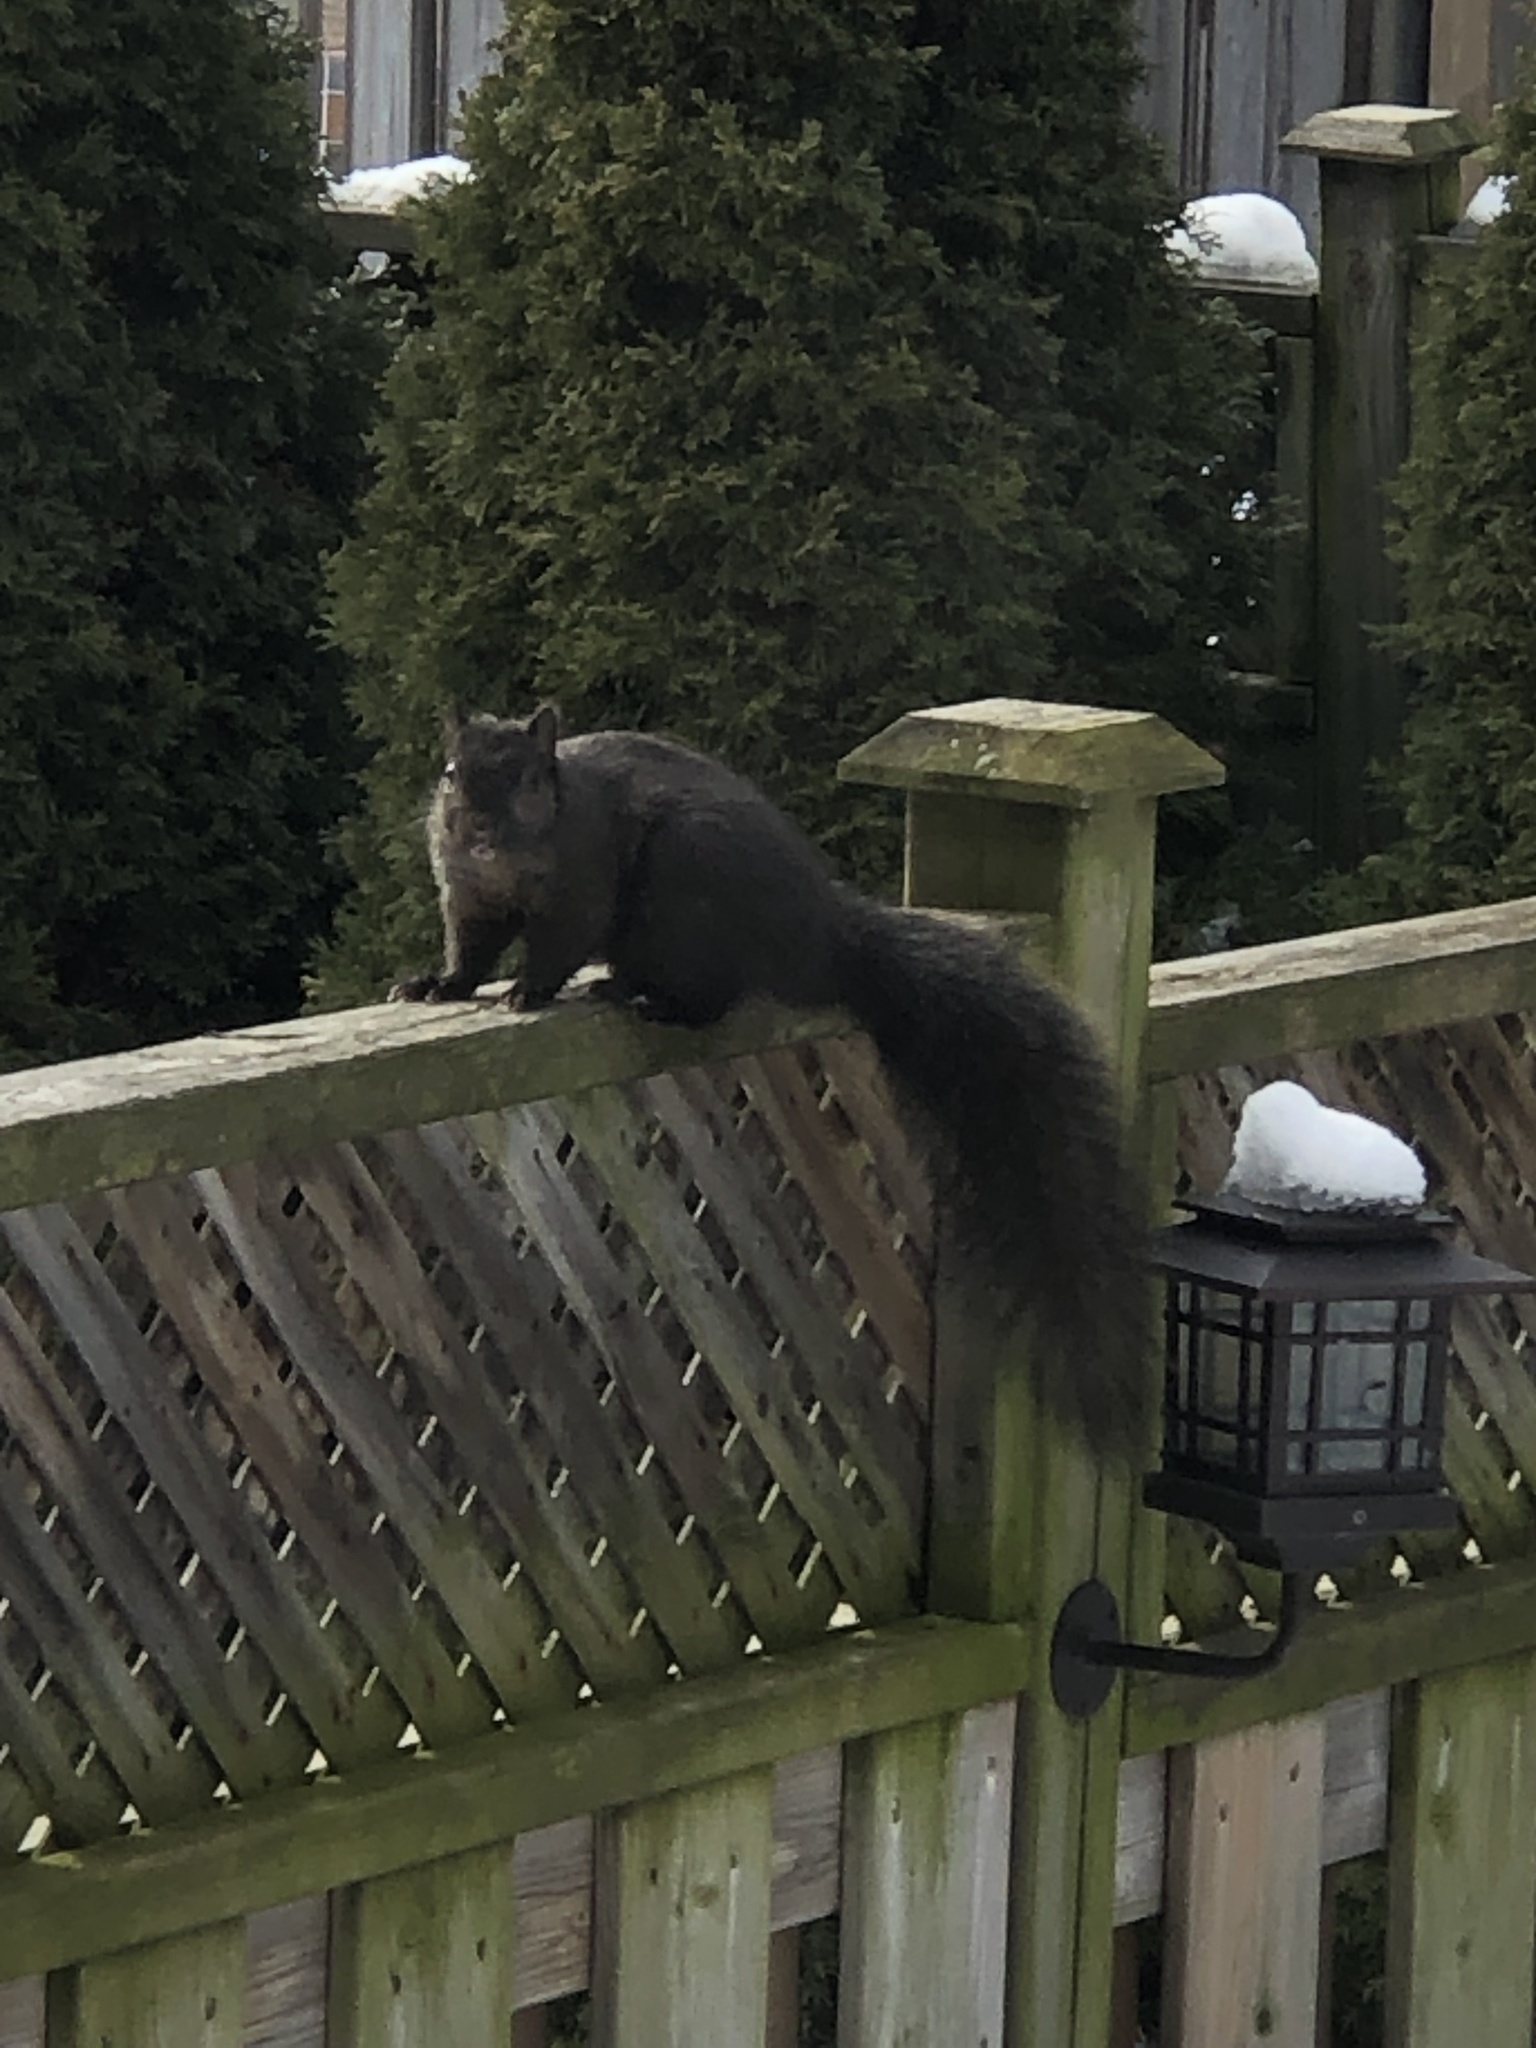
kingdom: Animalia
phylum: Chordata
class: Mammalia
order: Rodentia
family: Sciuridae
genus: Sciurus
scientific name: Sciurus carolinensis
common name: Eastern gray squirrel
